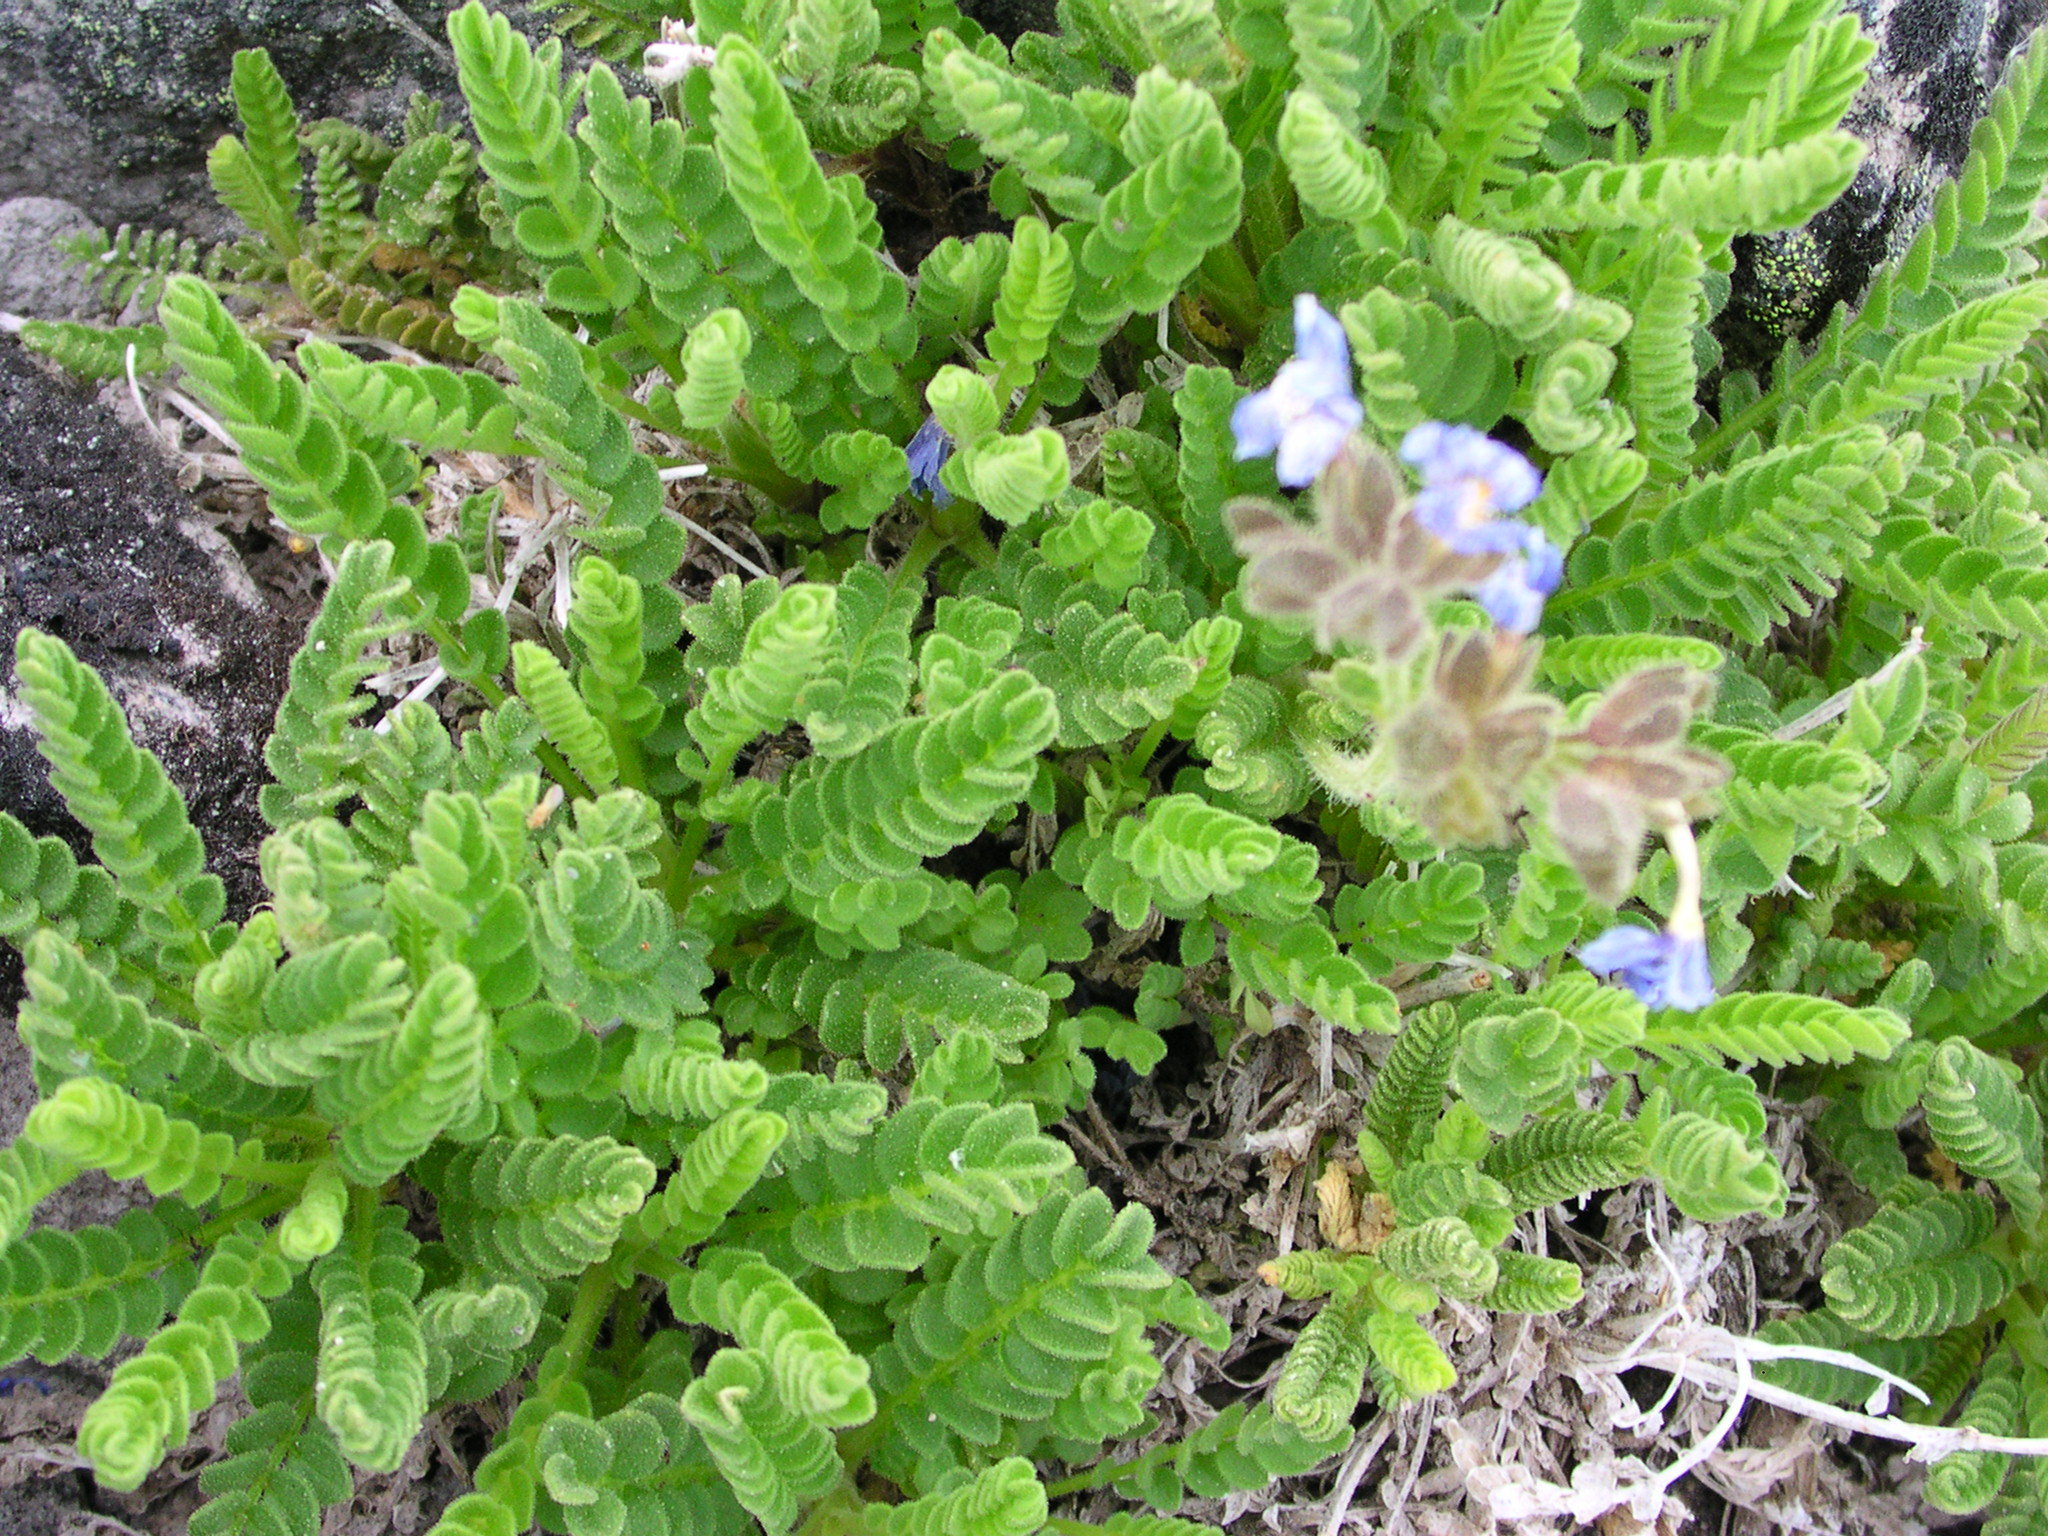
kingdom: Plantae
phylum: Tracheophyta
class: Magnoliopsida
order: Ericales
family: Polemoniaceae
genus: Polemonium
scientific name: Polemonium elegans
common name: Elegant jacob's-ladder
